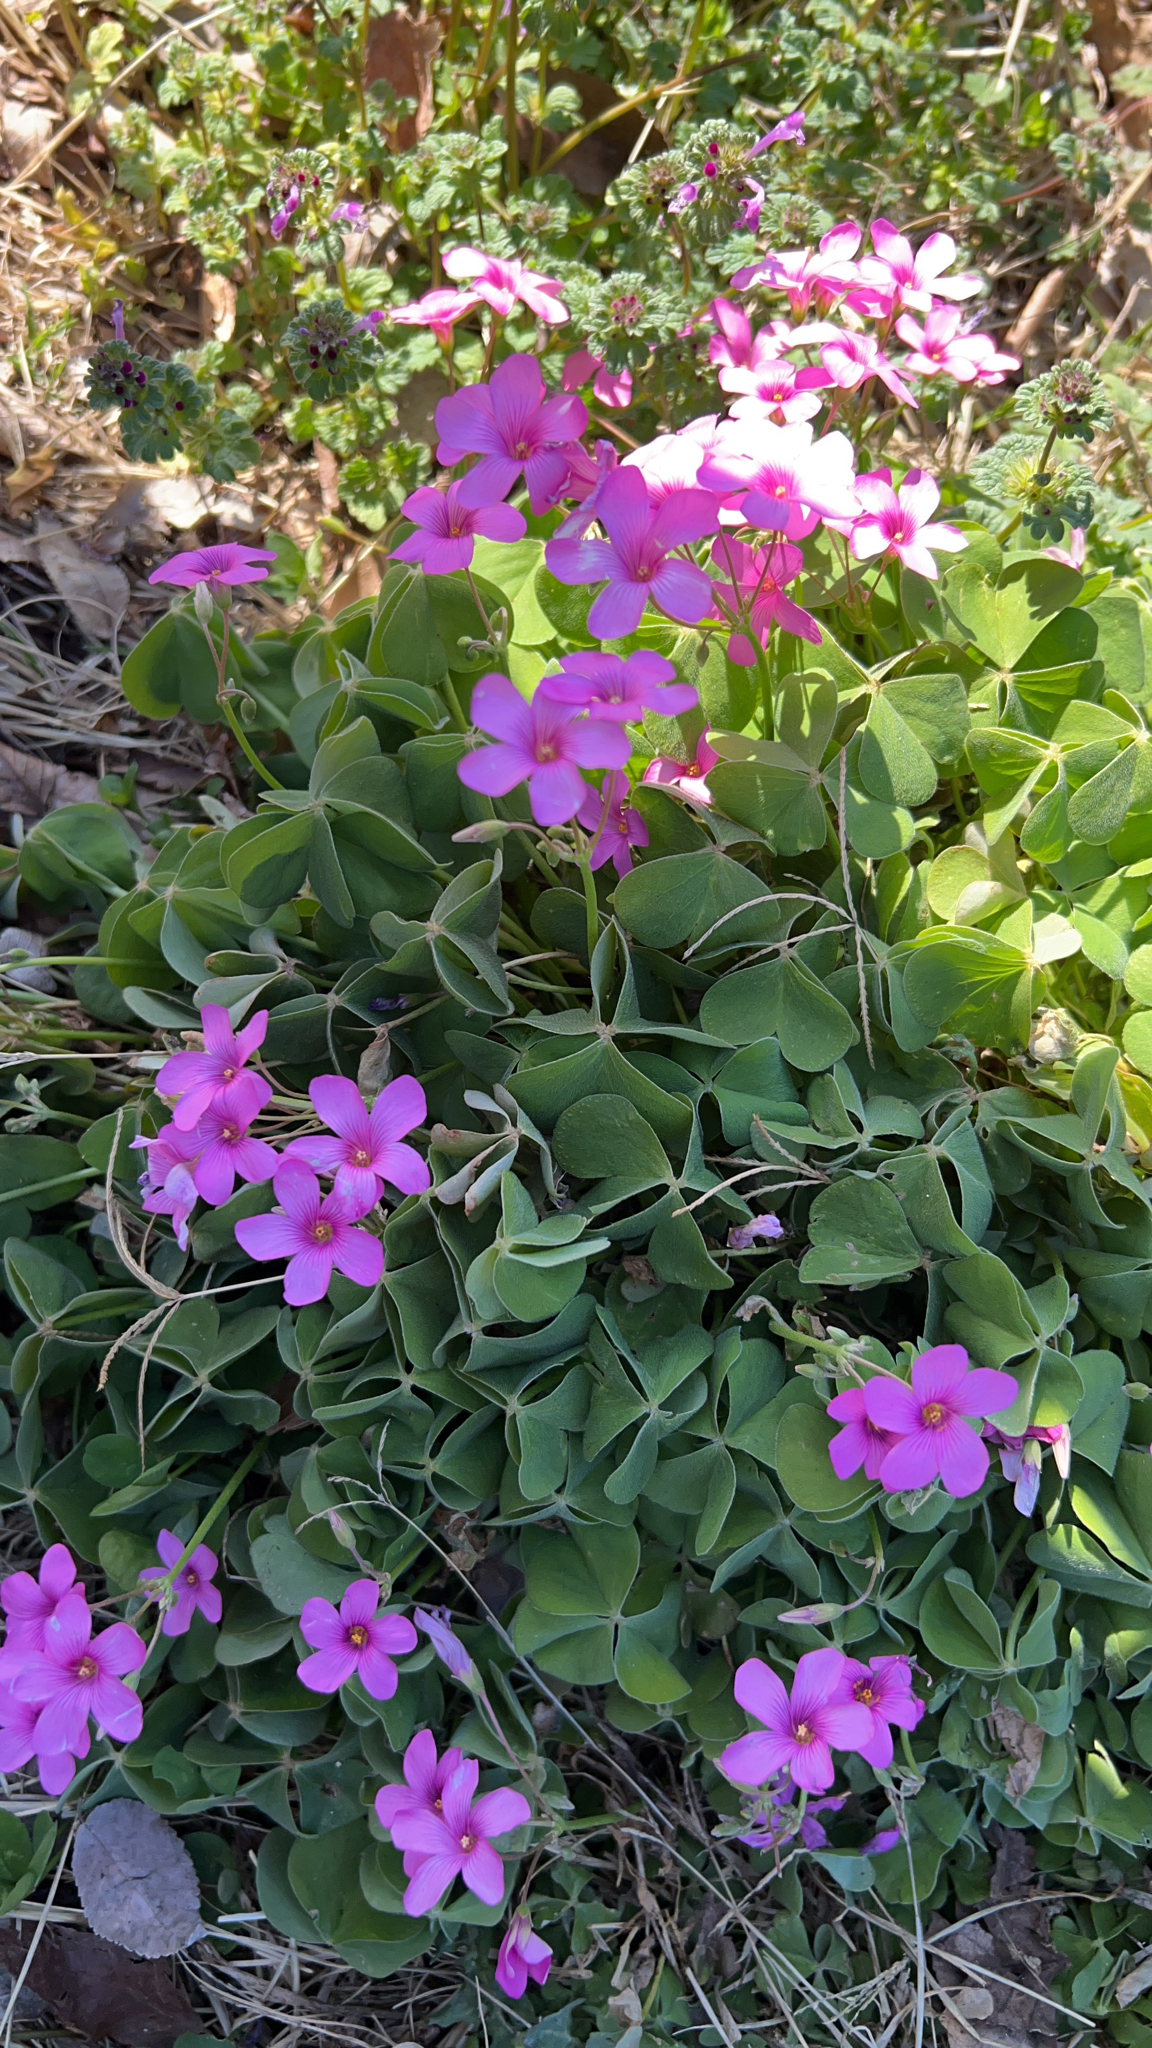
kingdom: Plantae
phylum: Tracheophyta
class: Magnoliopsida
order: Oxalidales
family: Oxalidaceae
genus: Oxalis
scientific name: Oxalis articulata
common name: Pink-sorrel
